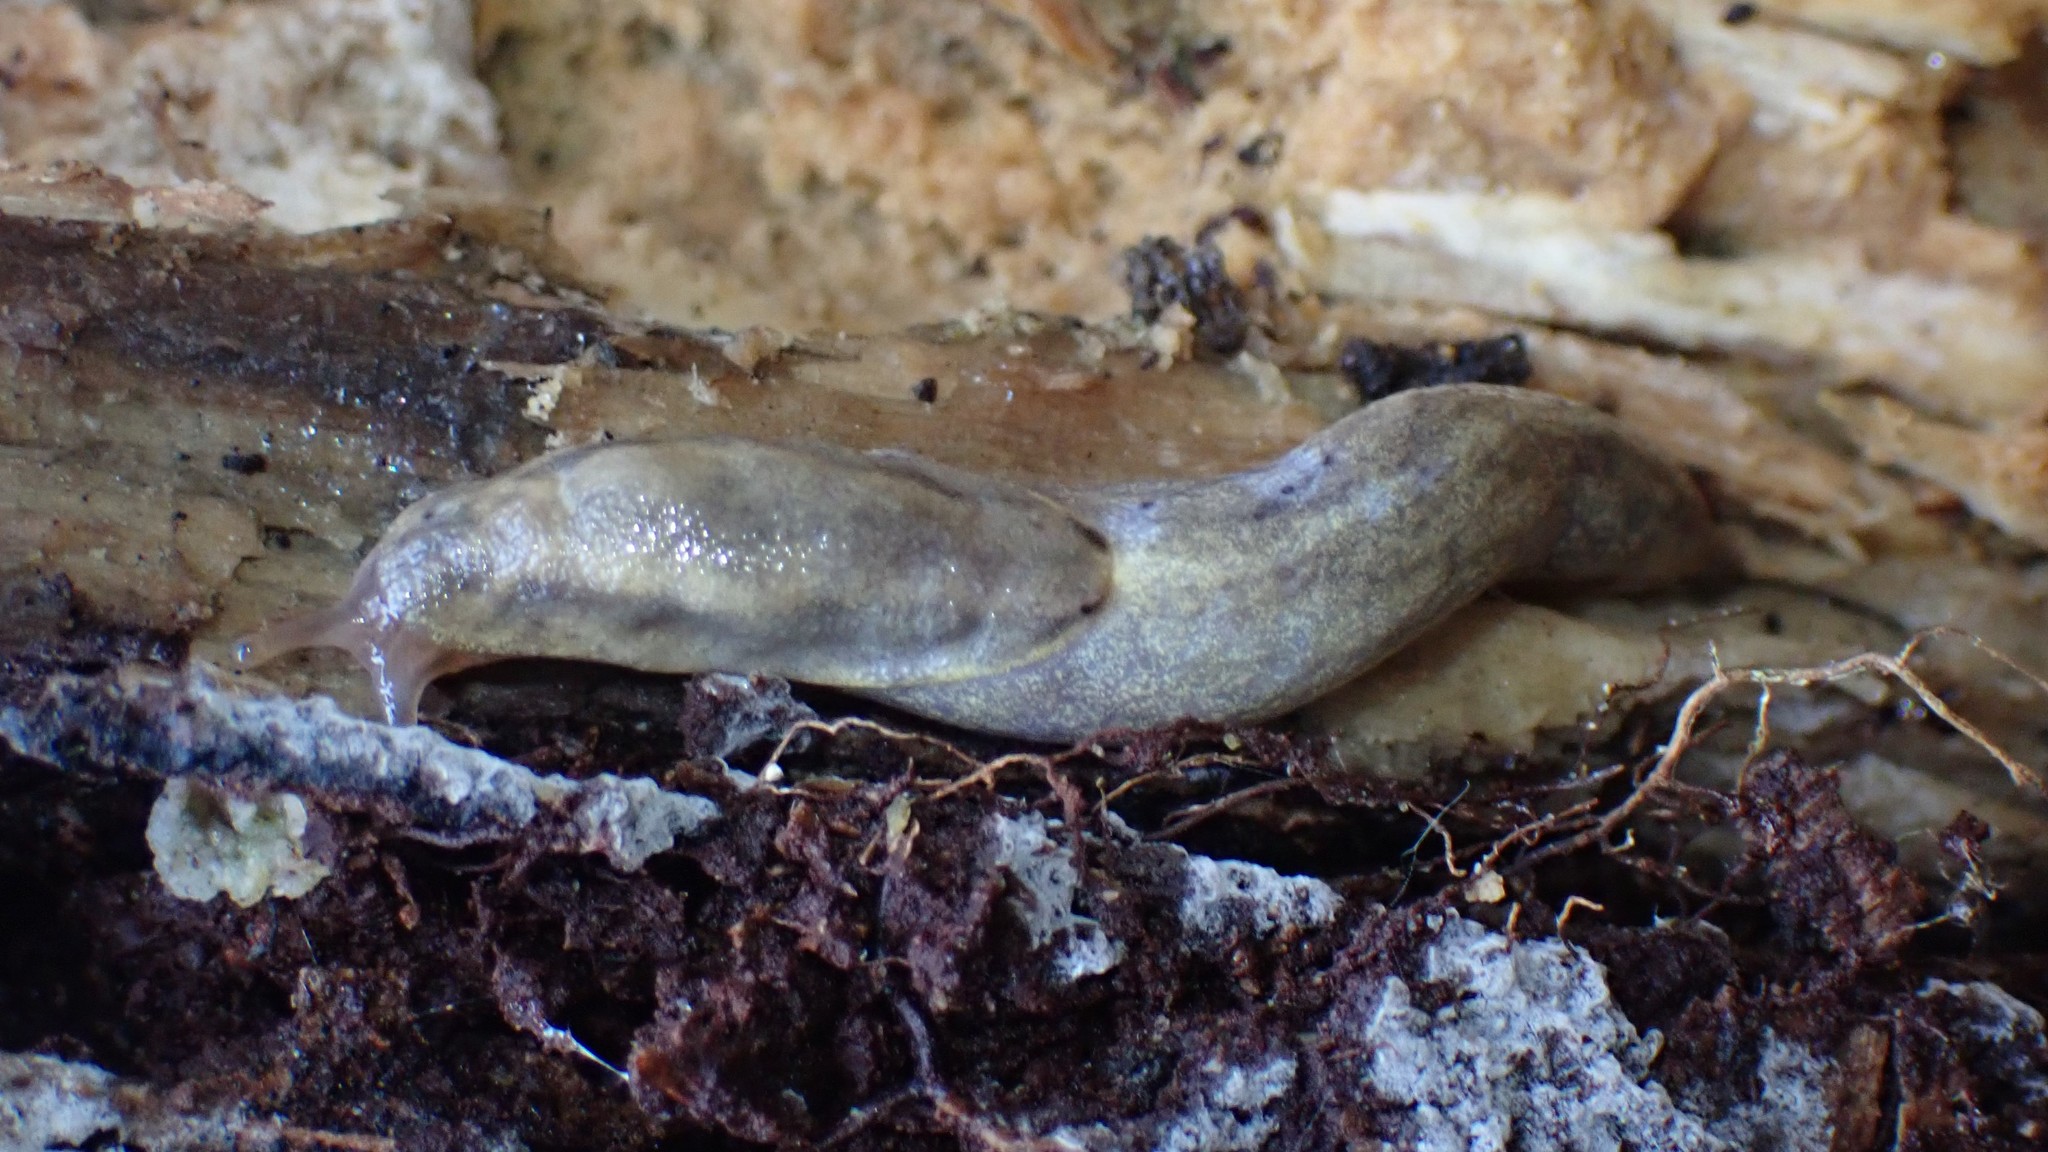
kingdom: Animalia
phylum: Mollusca
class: Gastropoda
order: Stylommatophora
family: Ariolimacidae
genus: Prophysaon
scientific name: Prophysaon foliolatum
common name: Yellow-bordered taildropper
